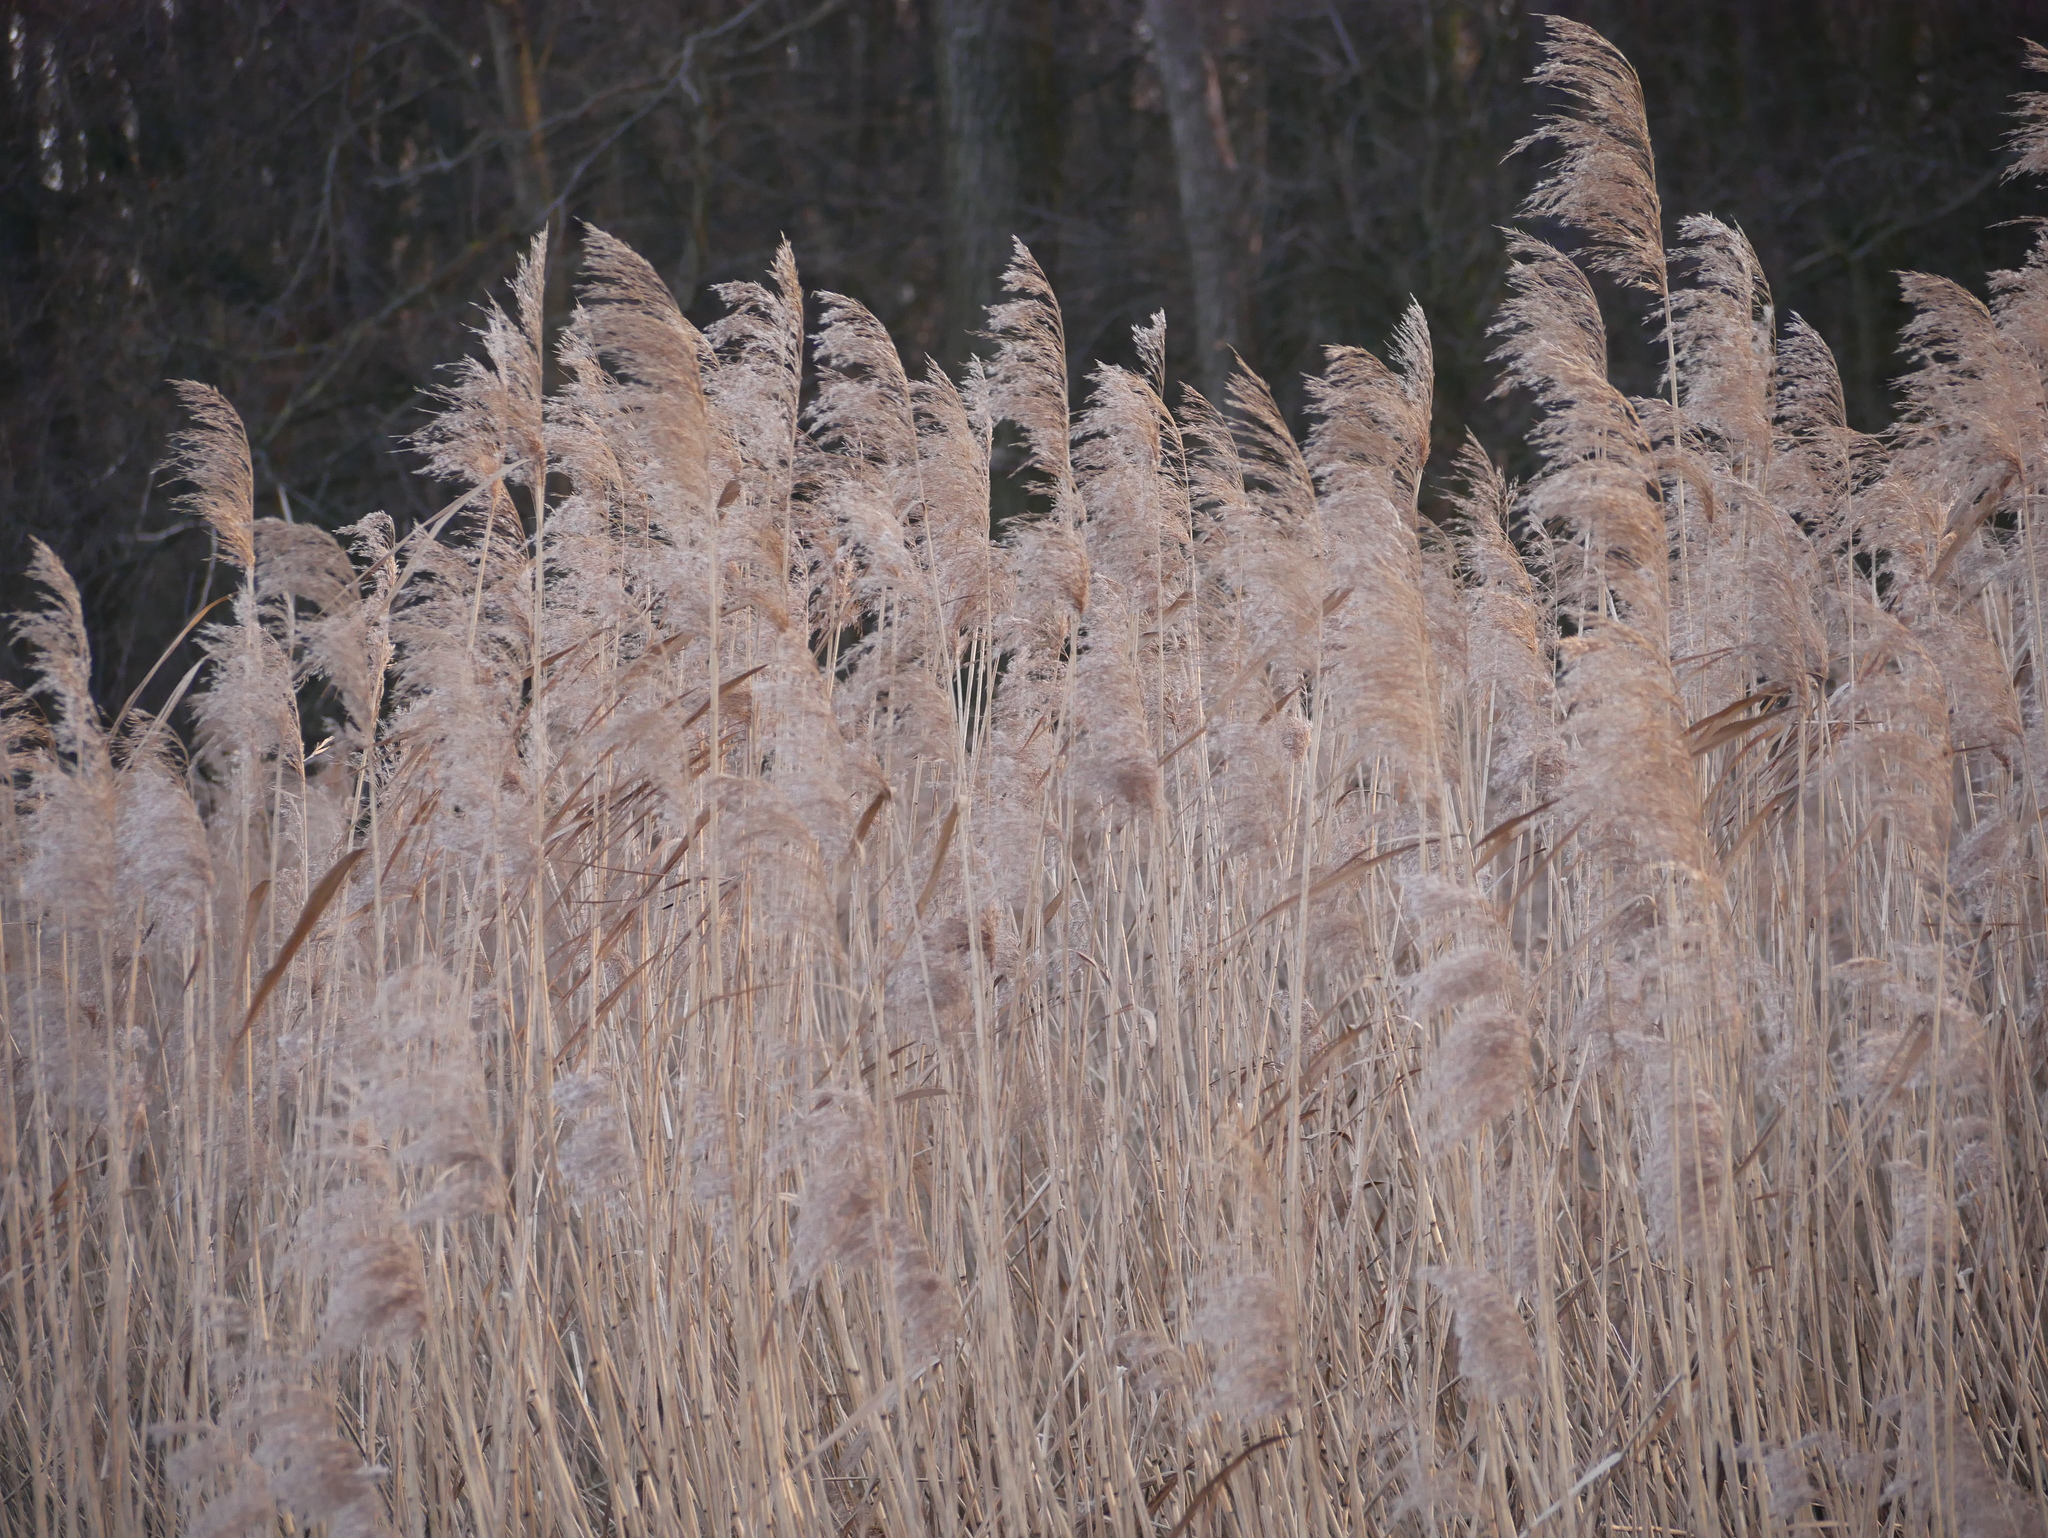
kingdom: Plantae
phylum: Tracheophyta
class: Liliopsida
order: Poales
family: Poaceae
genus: Phragmites
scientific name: Phragmites australis
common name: Common reed
